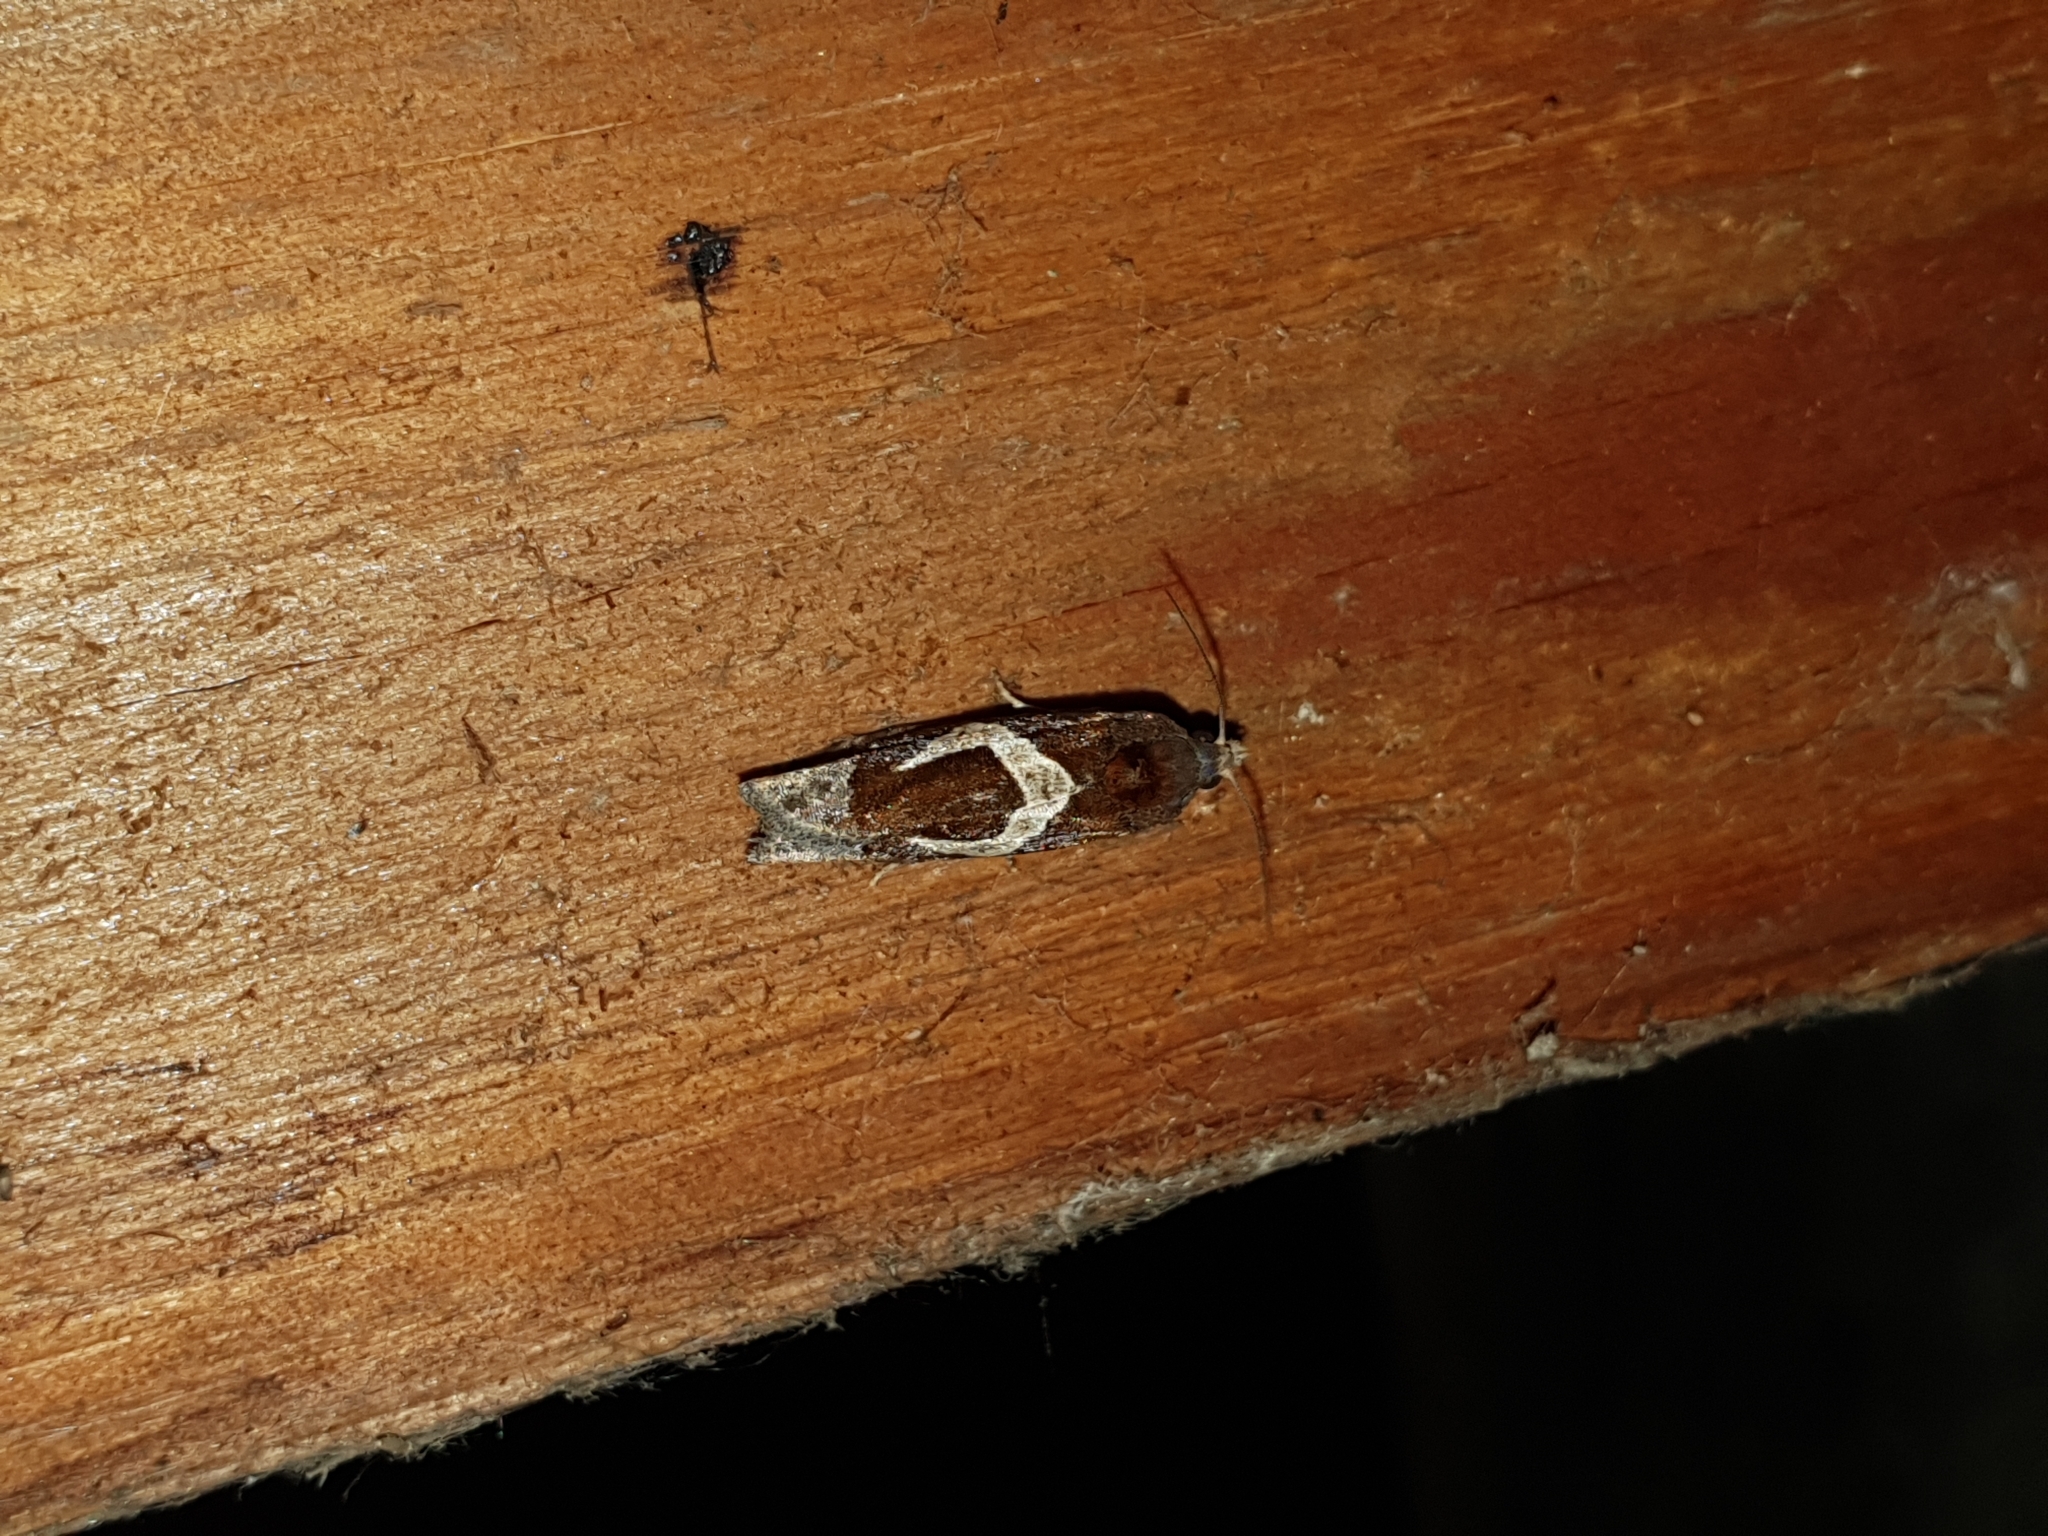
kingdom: Animalia
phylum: Arthropoda
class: Insecta
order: Lepidoptera
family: Tortricidae
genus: Epiblema
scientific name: Epiblema foenella
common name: White-foot bell
